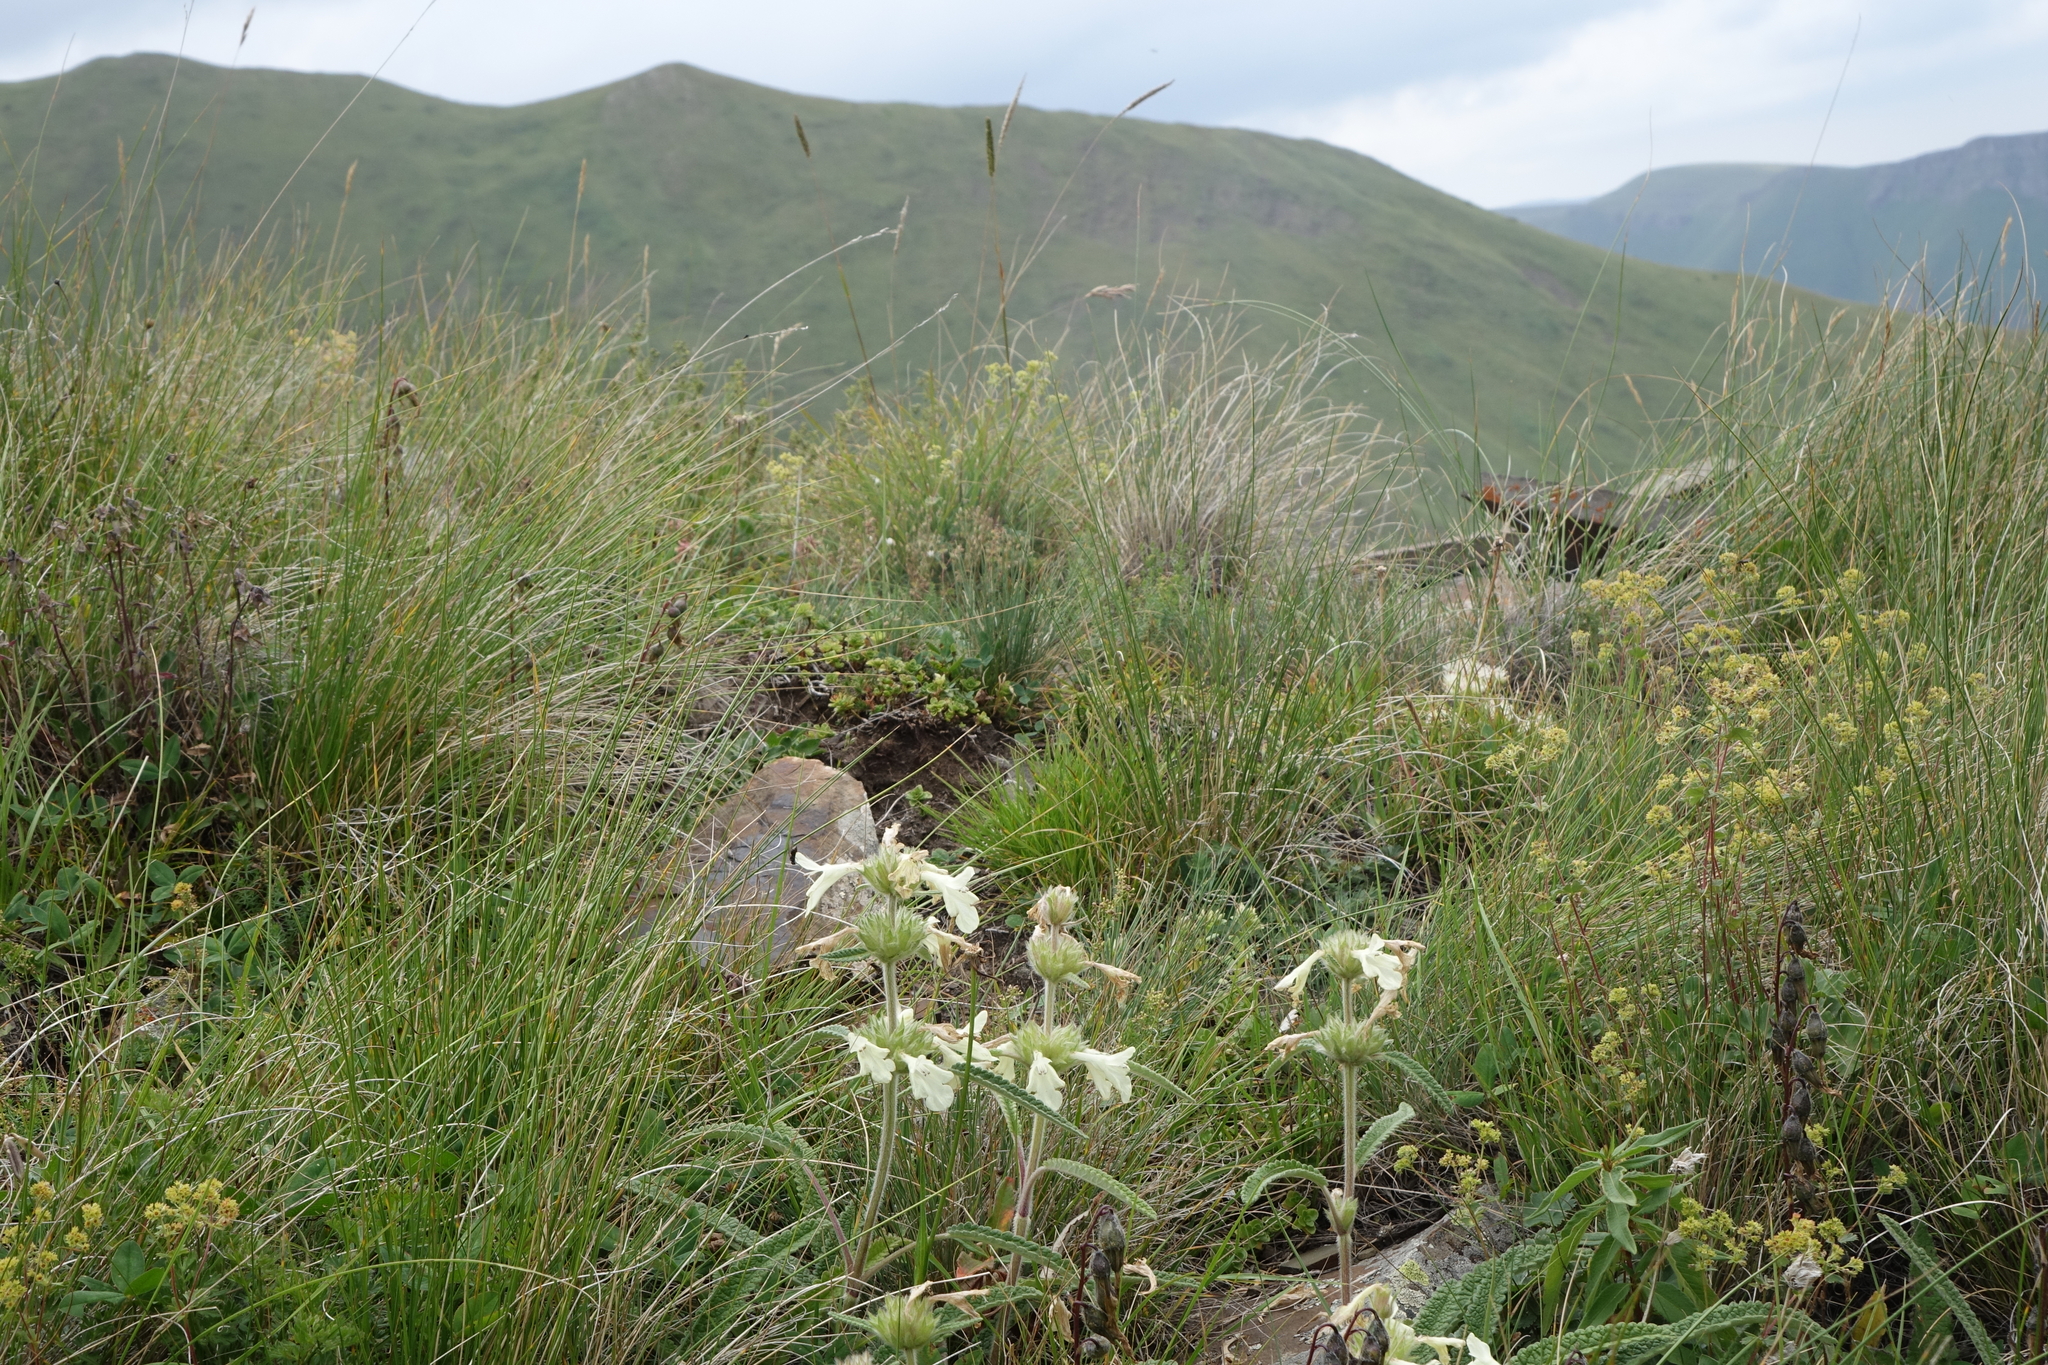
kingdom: Plantae
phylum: Tracheophyta
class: Magnoliopsida
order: Lamiales
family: Lamiaceae
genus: Betonica
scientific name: Betonica nivea
